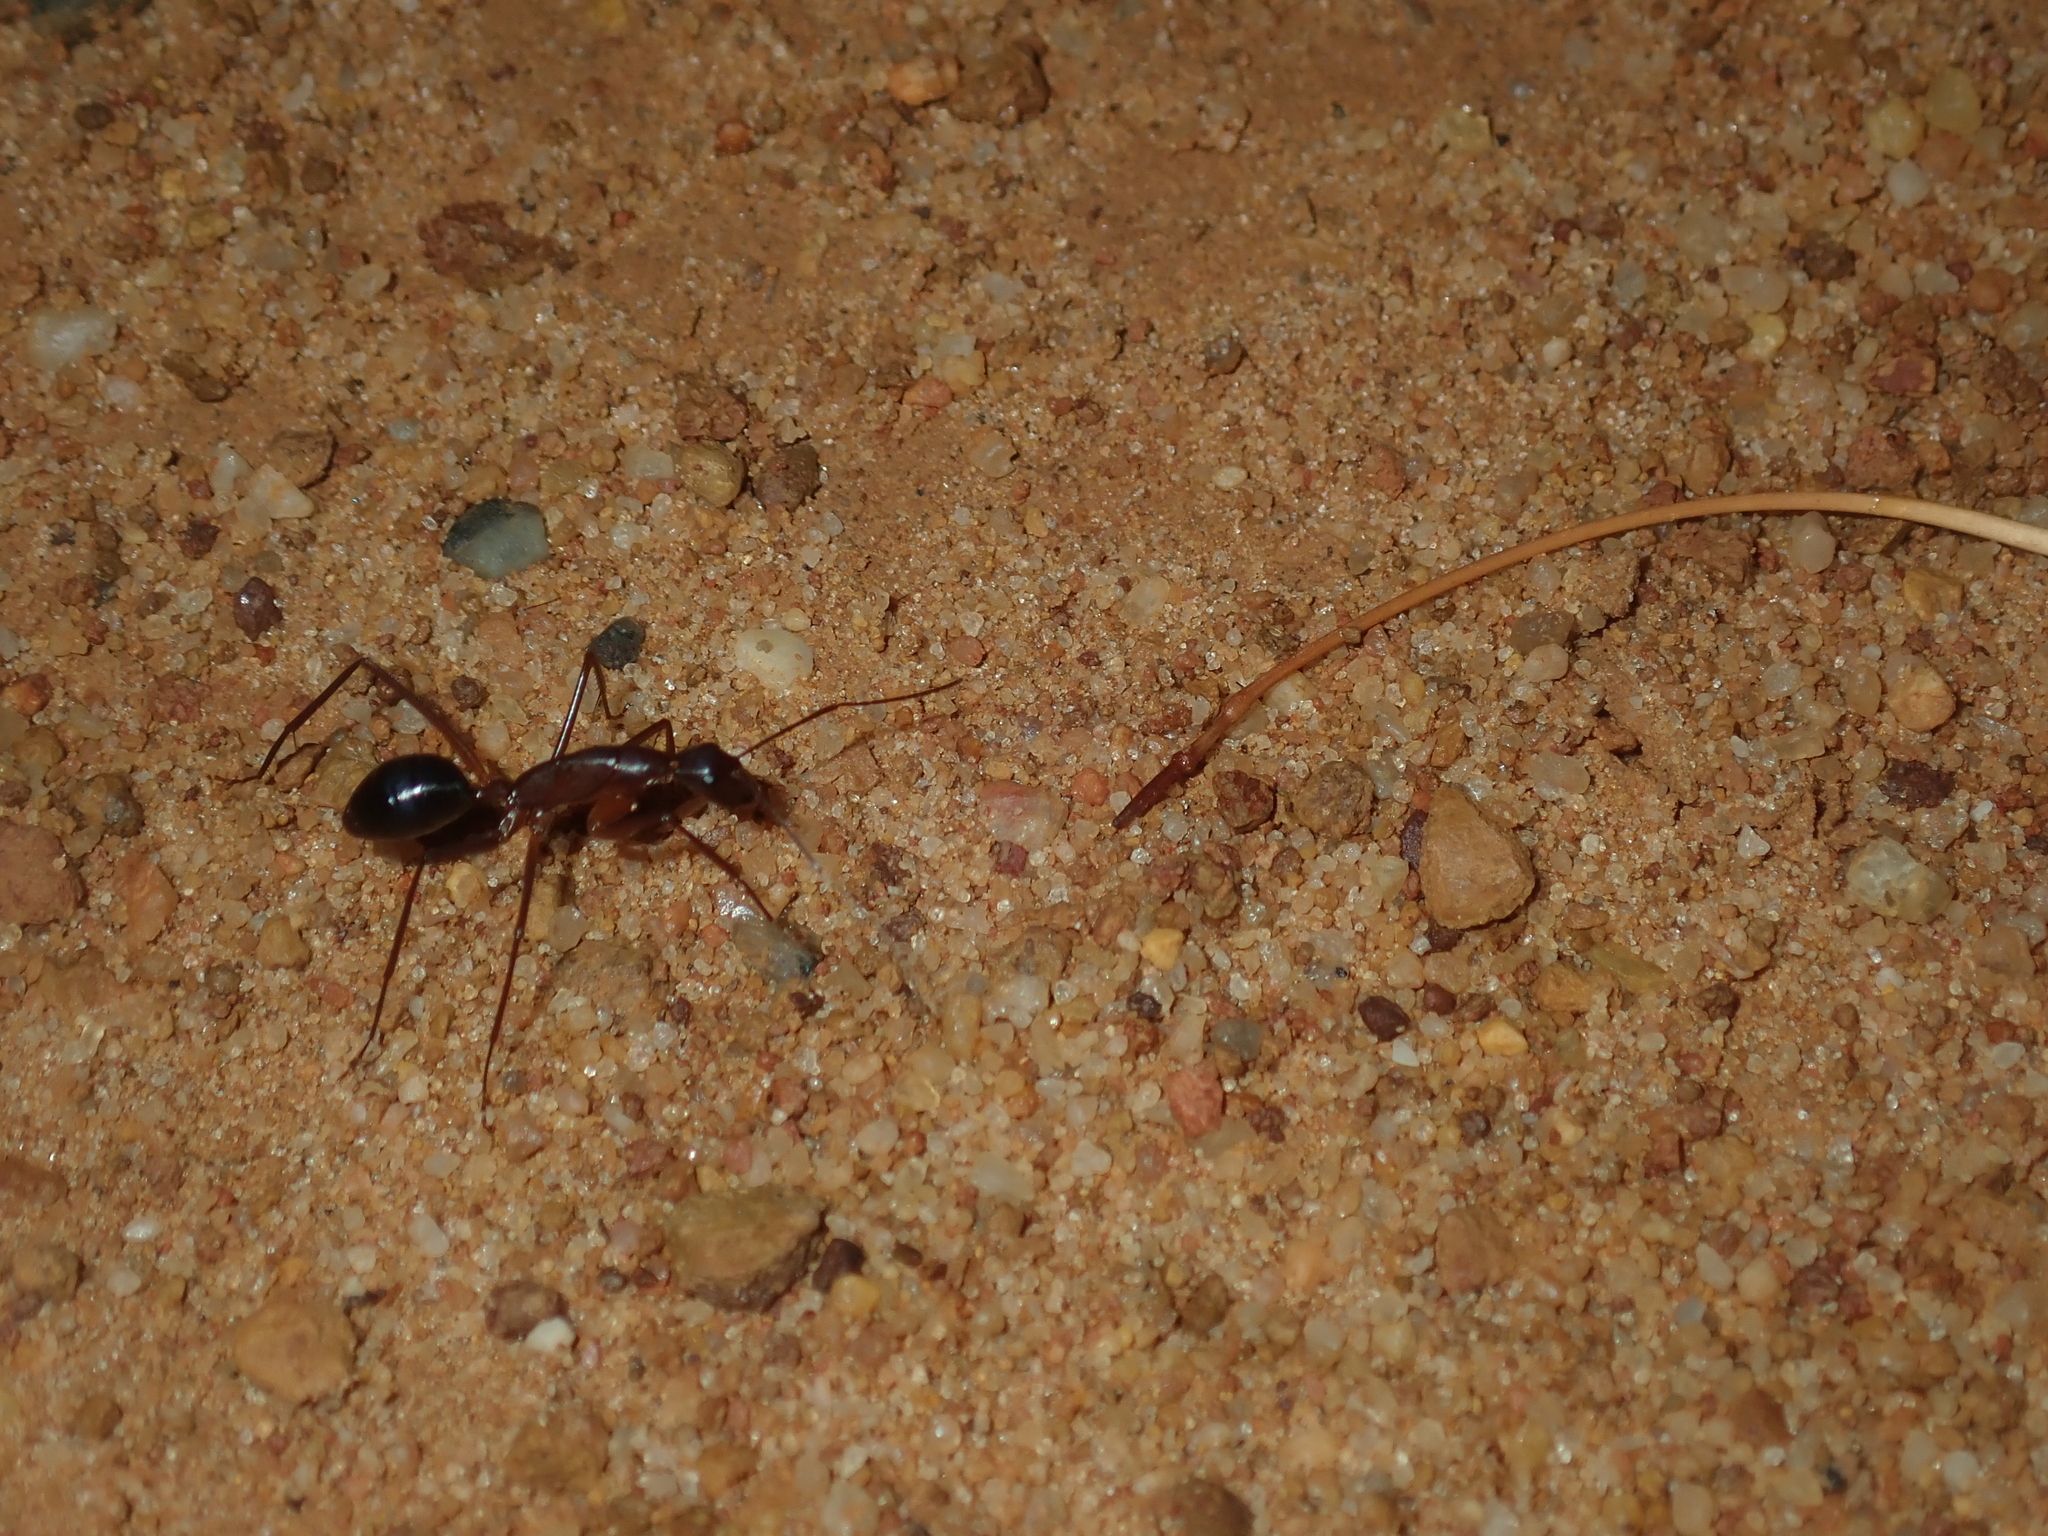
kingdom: Animalia
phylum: Arthropoda
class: Insecta
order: Hymenoptera
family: Formicidae
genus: Camponotus
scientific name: Camponotus rufus
